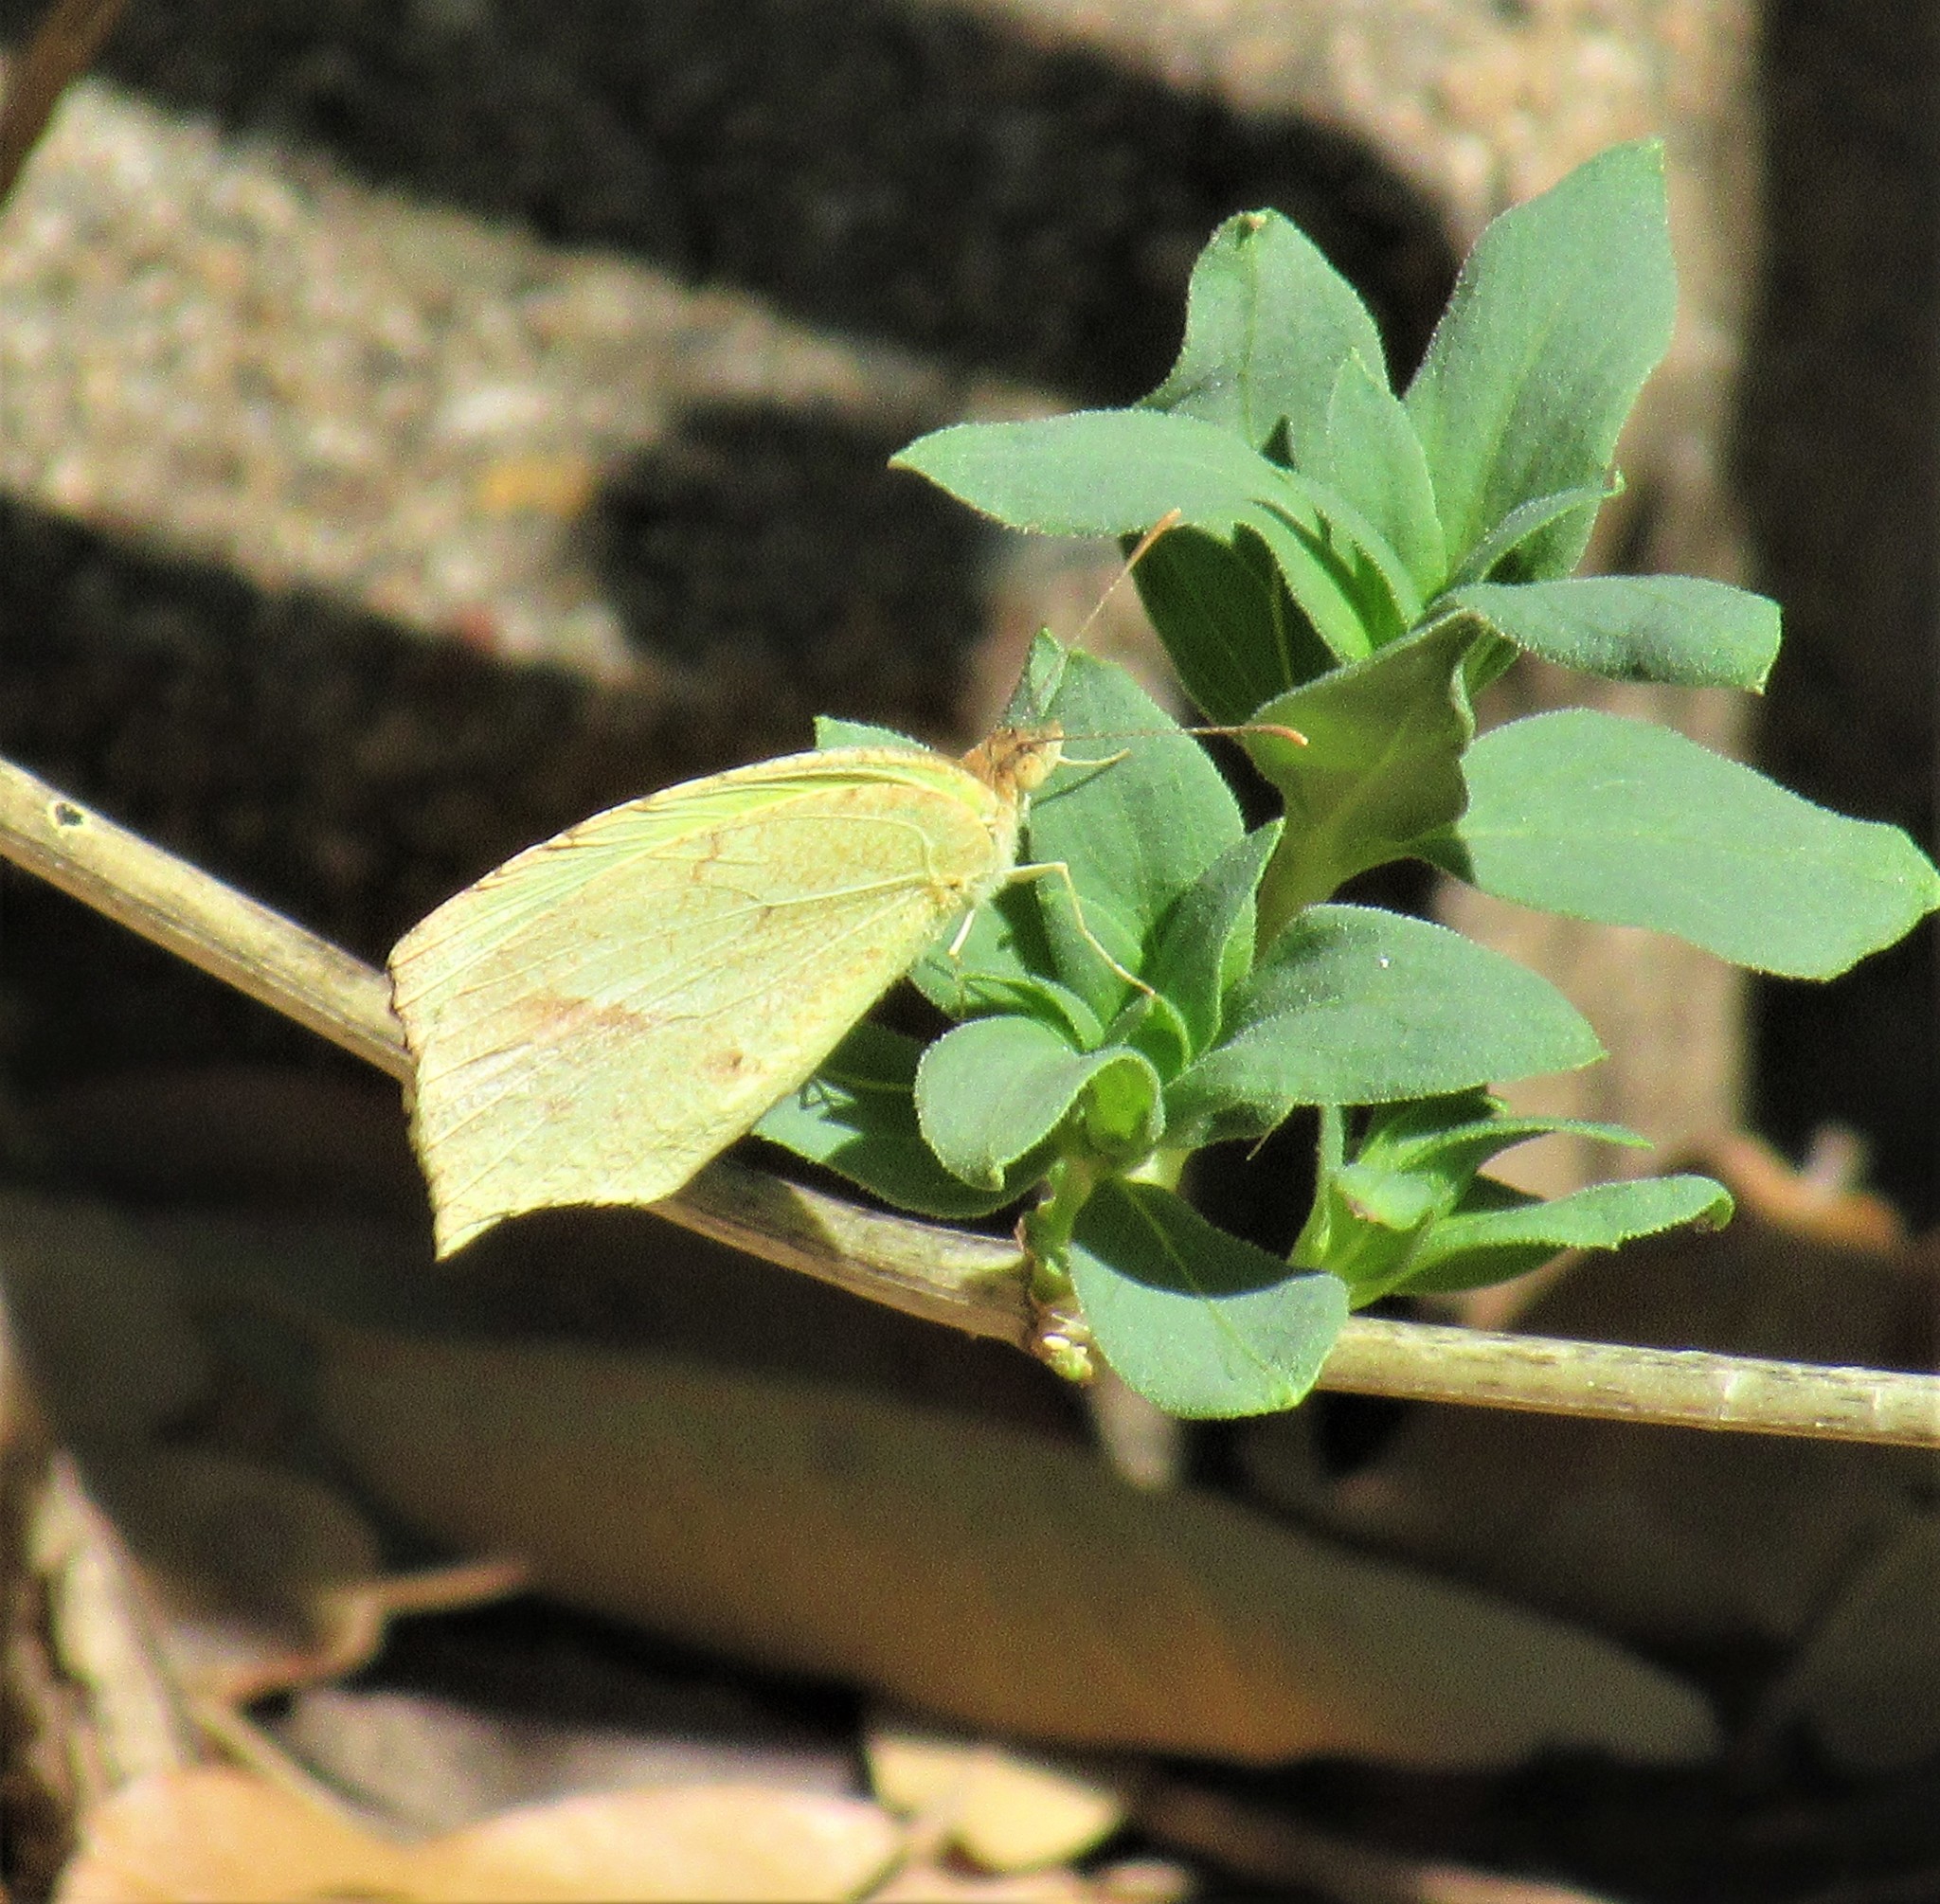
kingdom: Animalia
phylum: Arthropoda
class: Insecta
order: Lepidoptera
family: Pieridae
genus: Abaeis
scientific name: Abaeis mexicana
